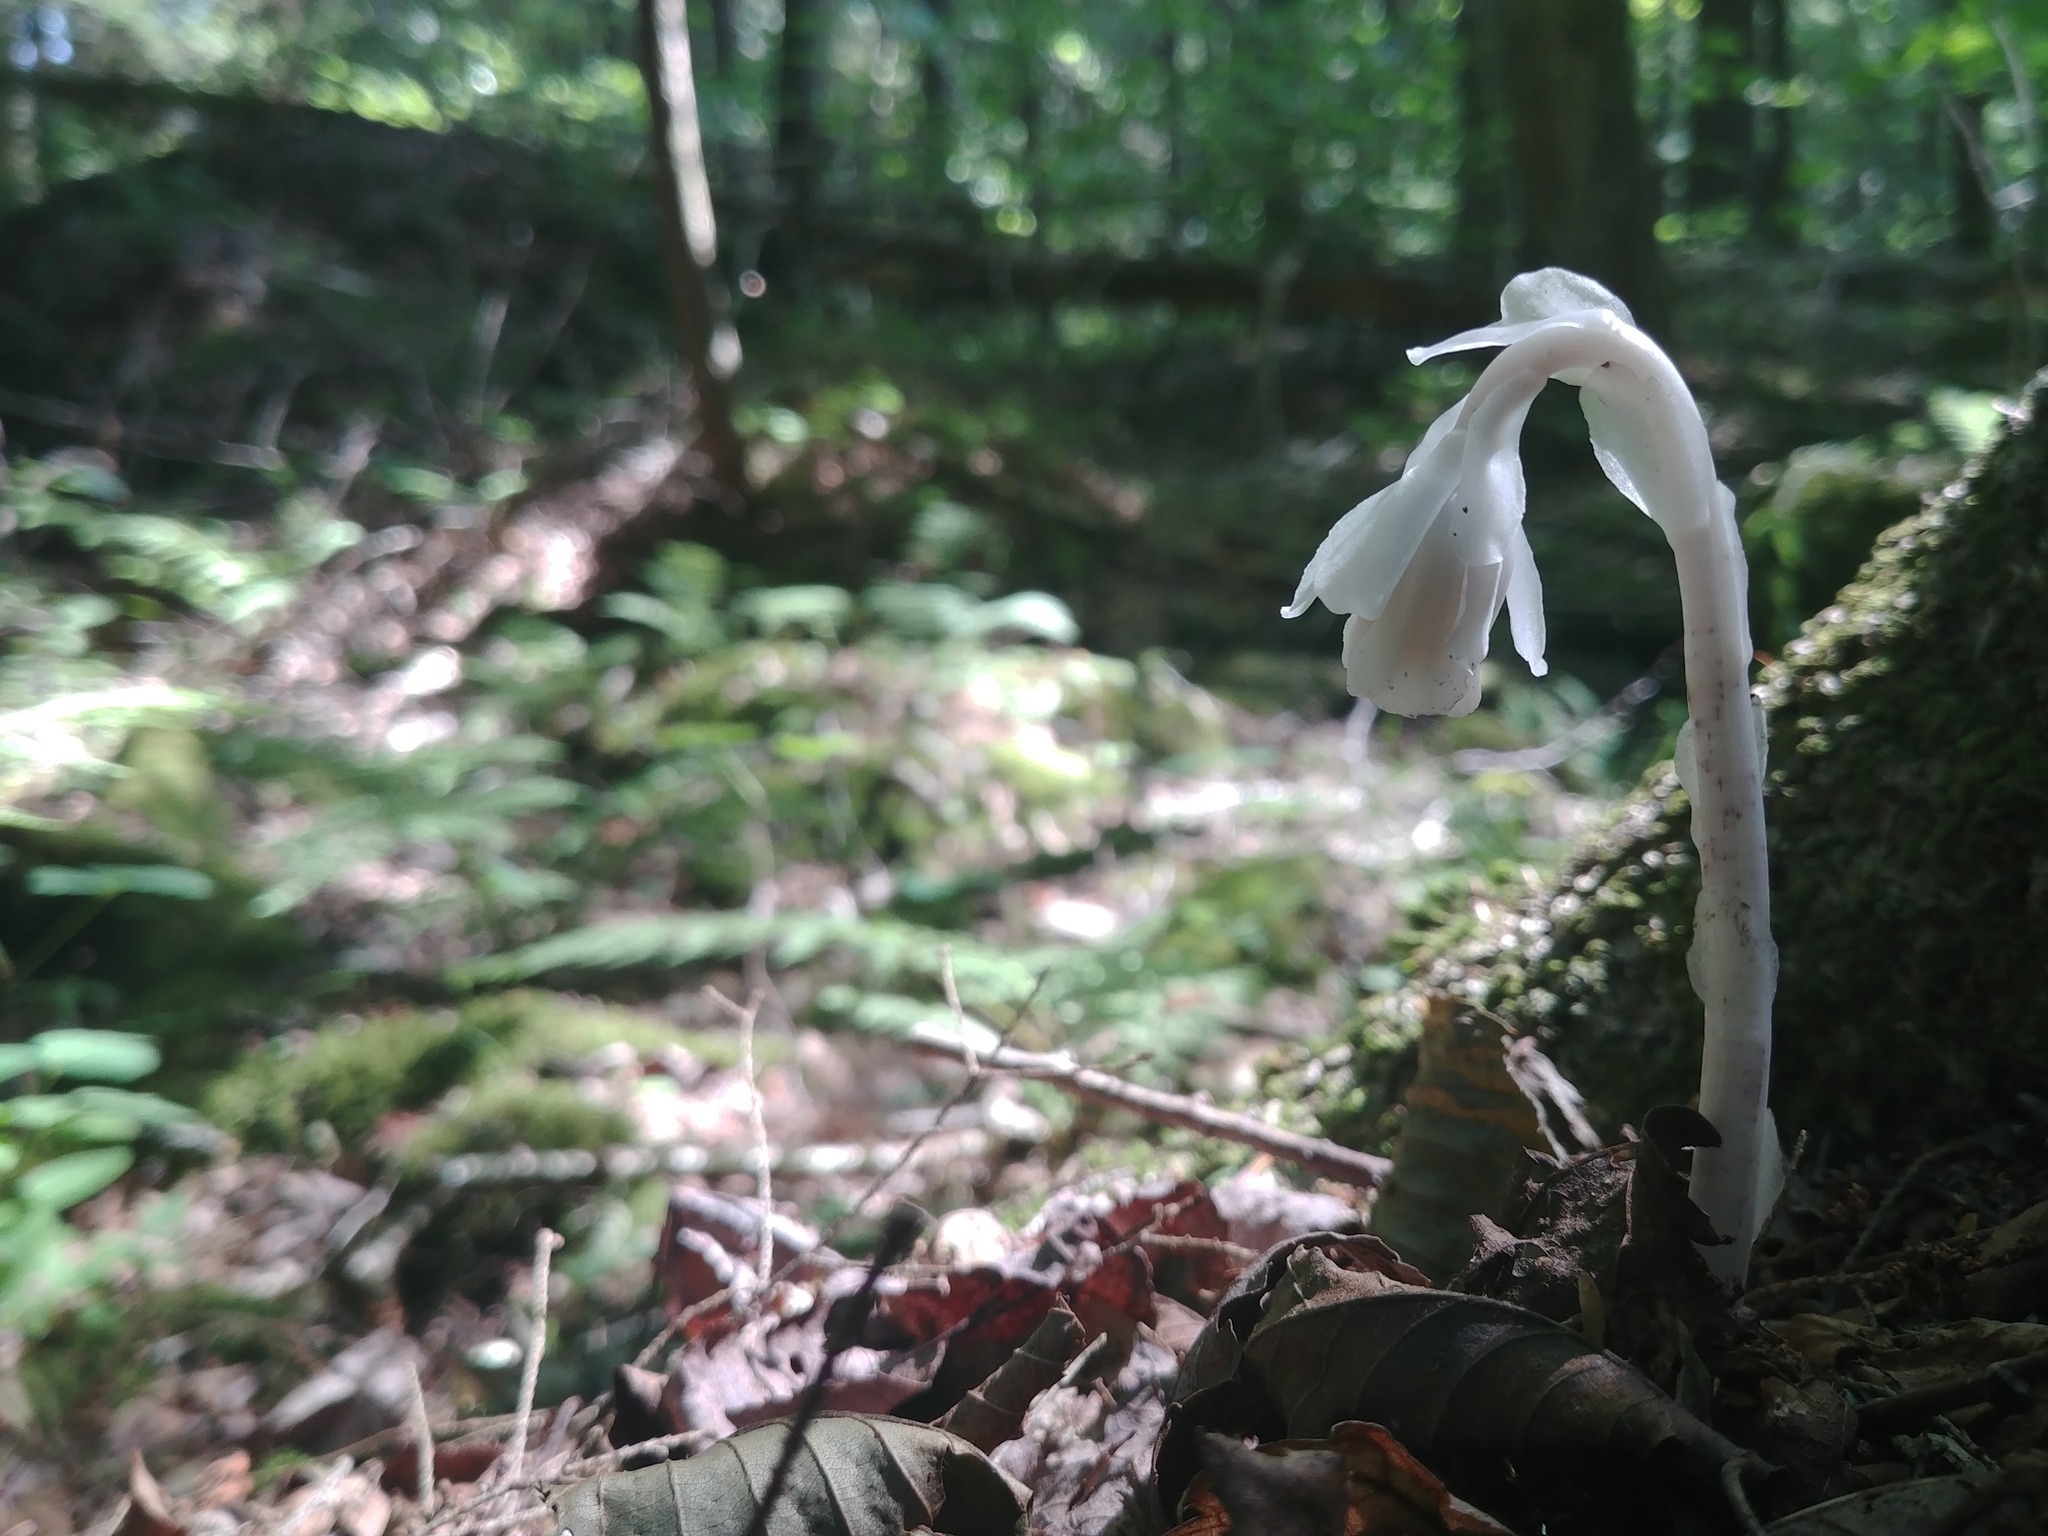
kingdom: Plantae
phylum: Tracheophyta
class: Magnoliopsida
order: Ericales
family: Ericaceae
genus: Monotropa
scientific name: Monotropa uniflora
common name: Convulsion root
